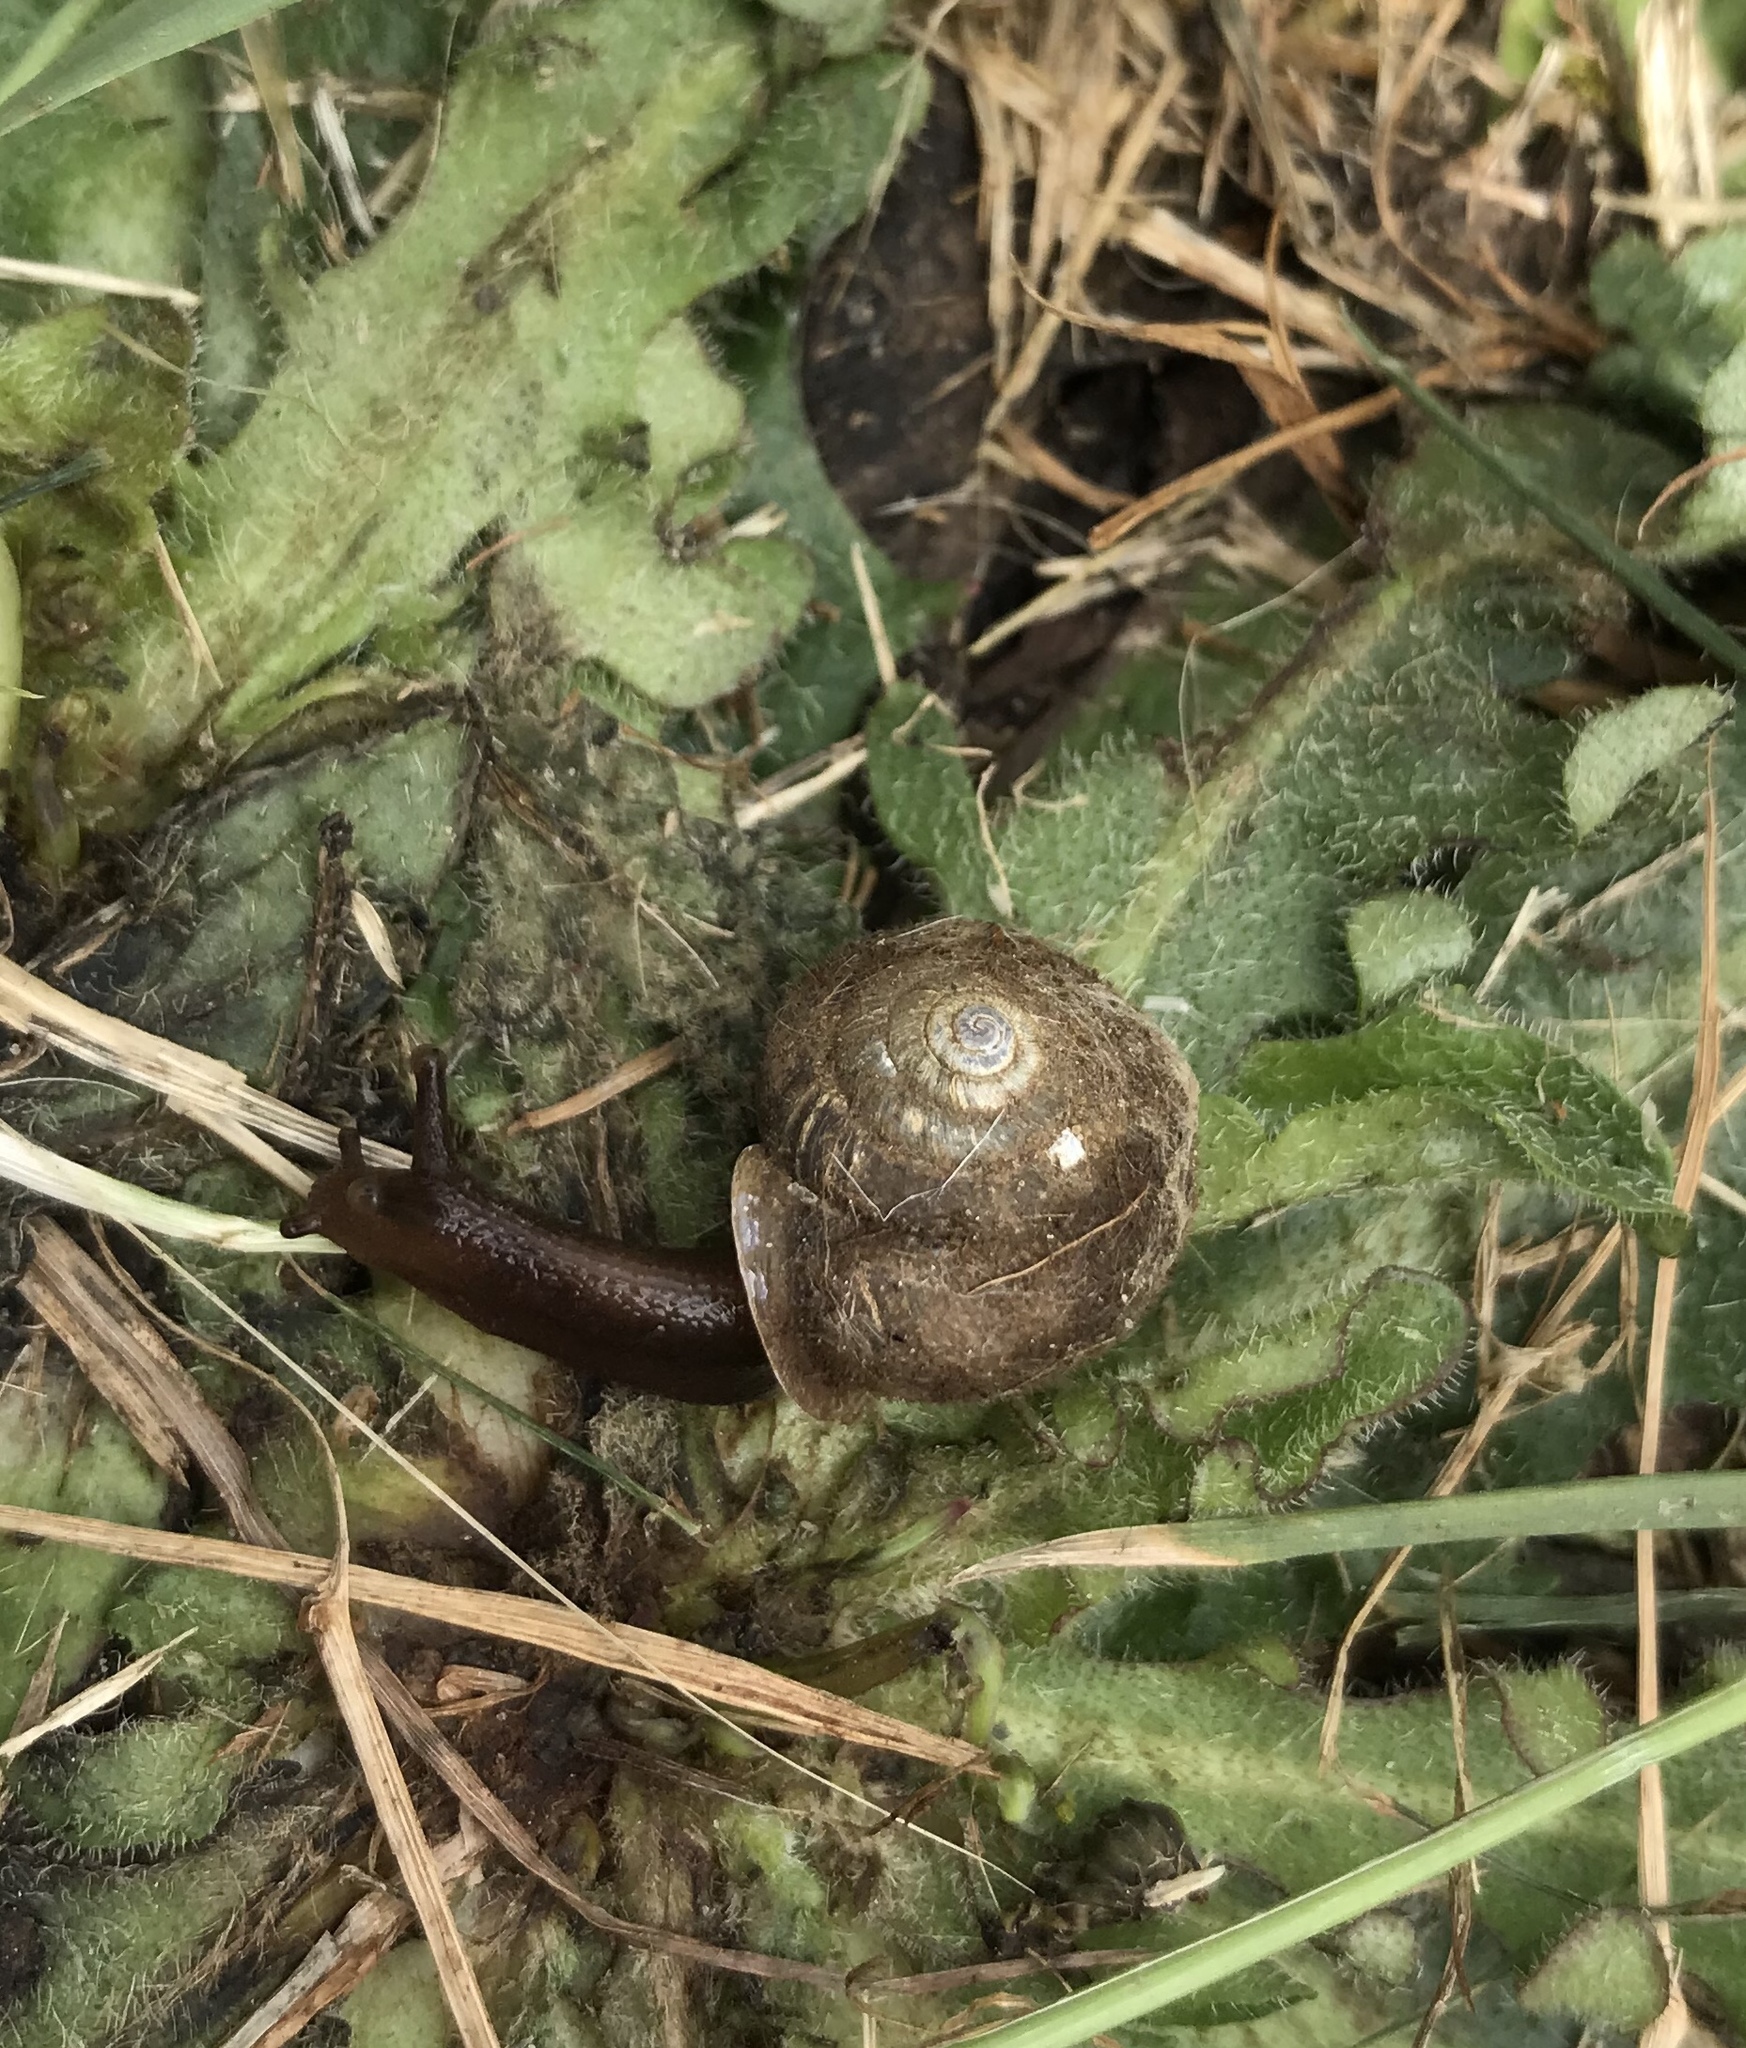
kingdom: Animalia
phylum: Mollusca
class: Gastropoda
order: Stylommatophora
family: Polygyridae
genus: Vespericola
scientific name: Vespericola columbianus
